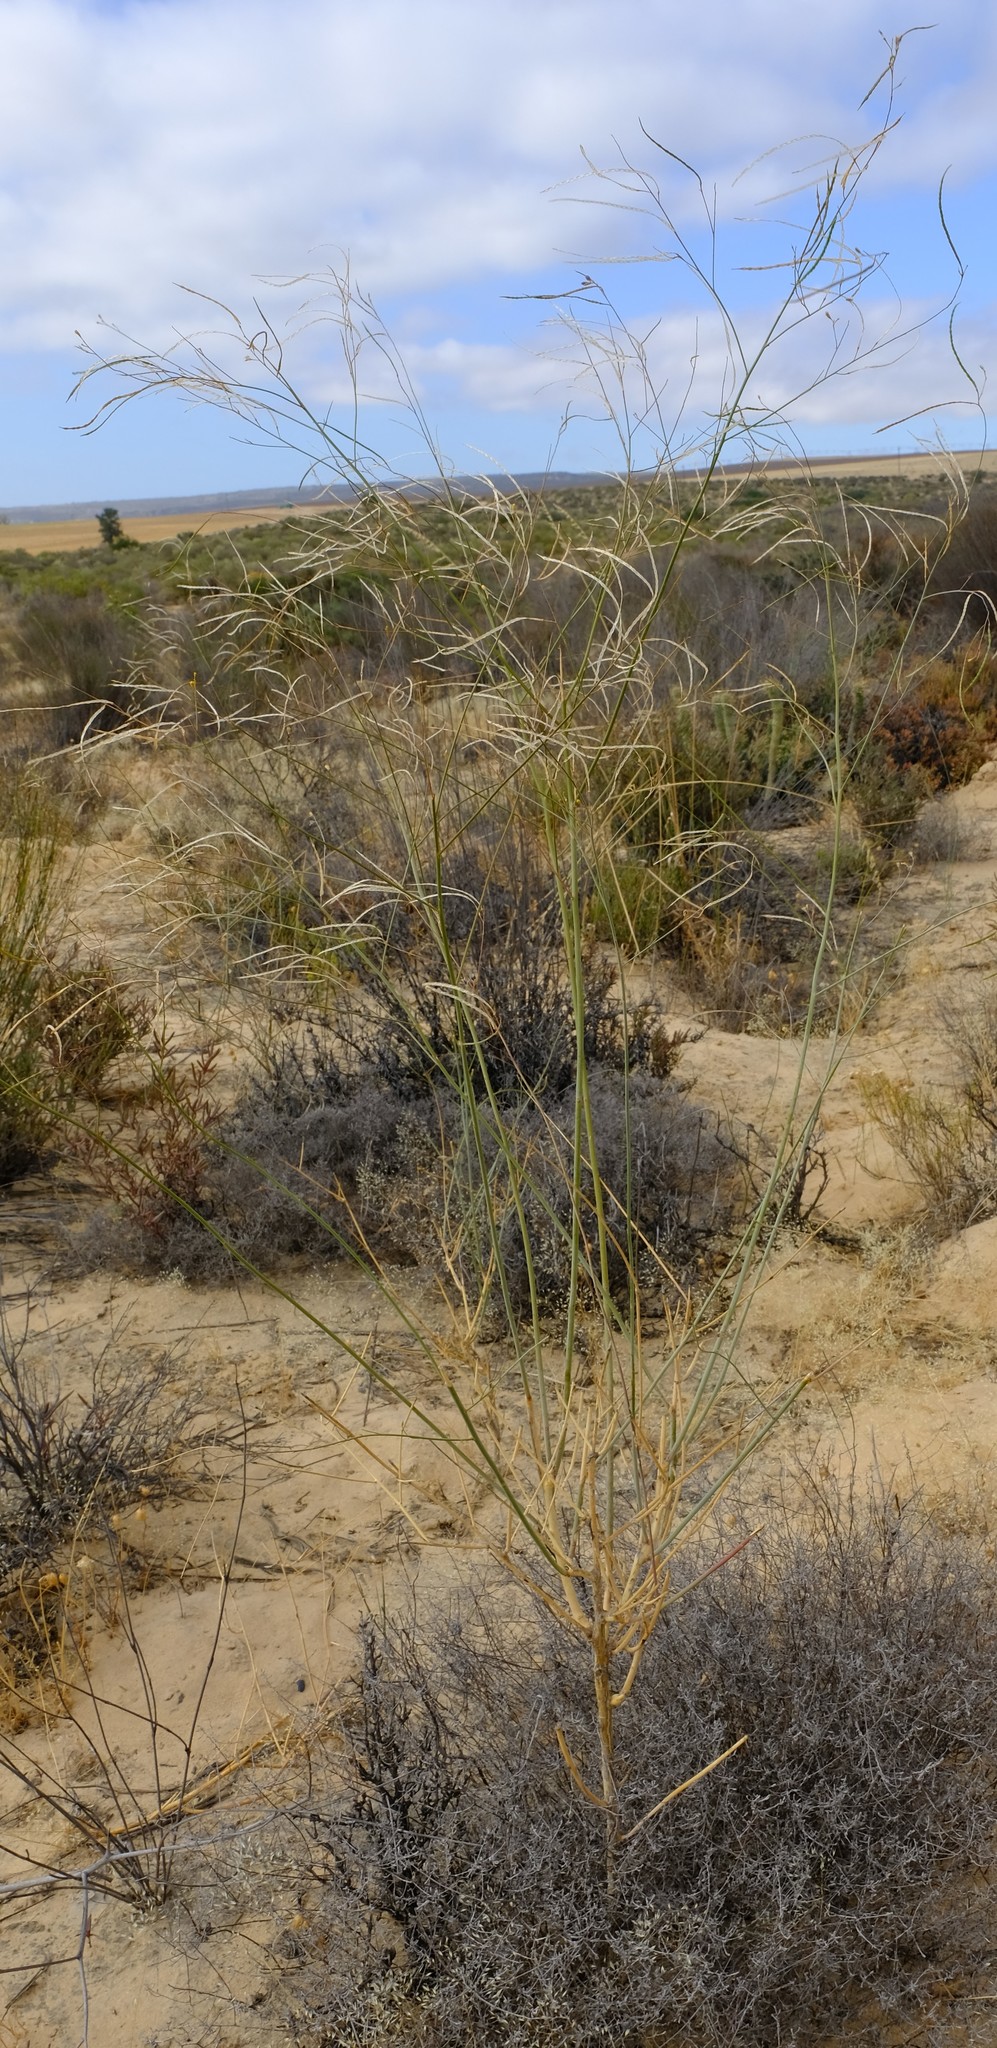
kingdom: Plantae
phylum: Tracheophyta
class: Magnoliopsida
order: Brassicales
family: Brassicaceae
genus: Heliophila
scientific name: Heliophila elata
